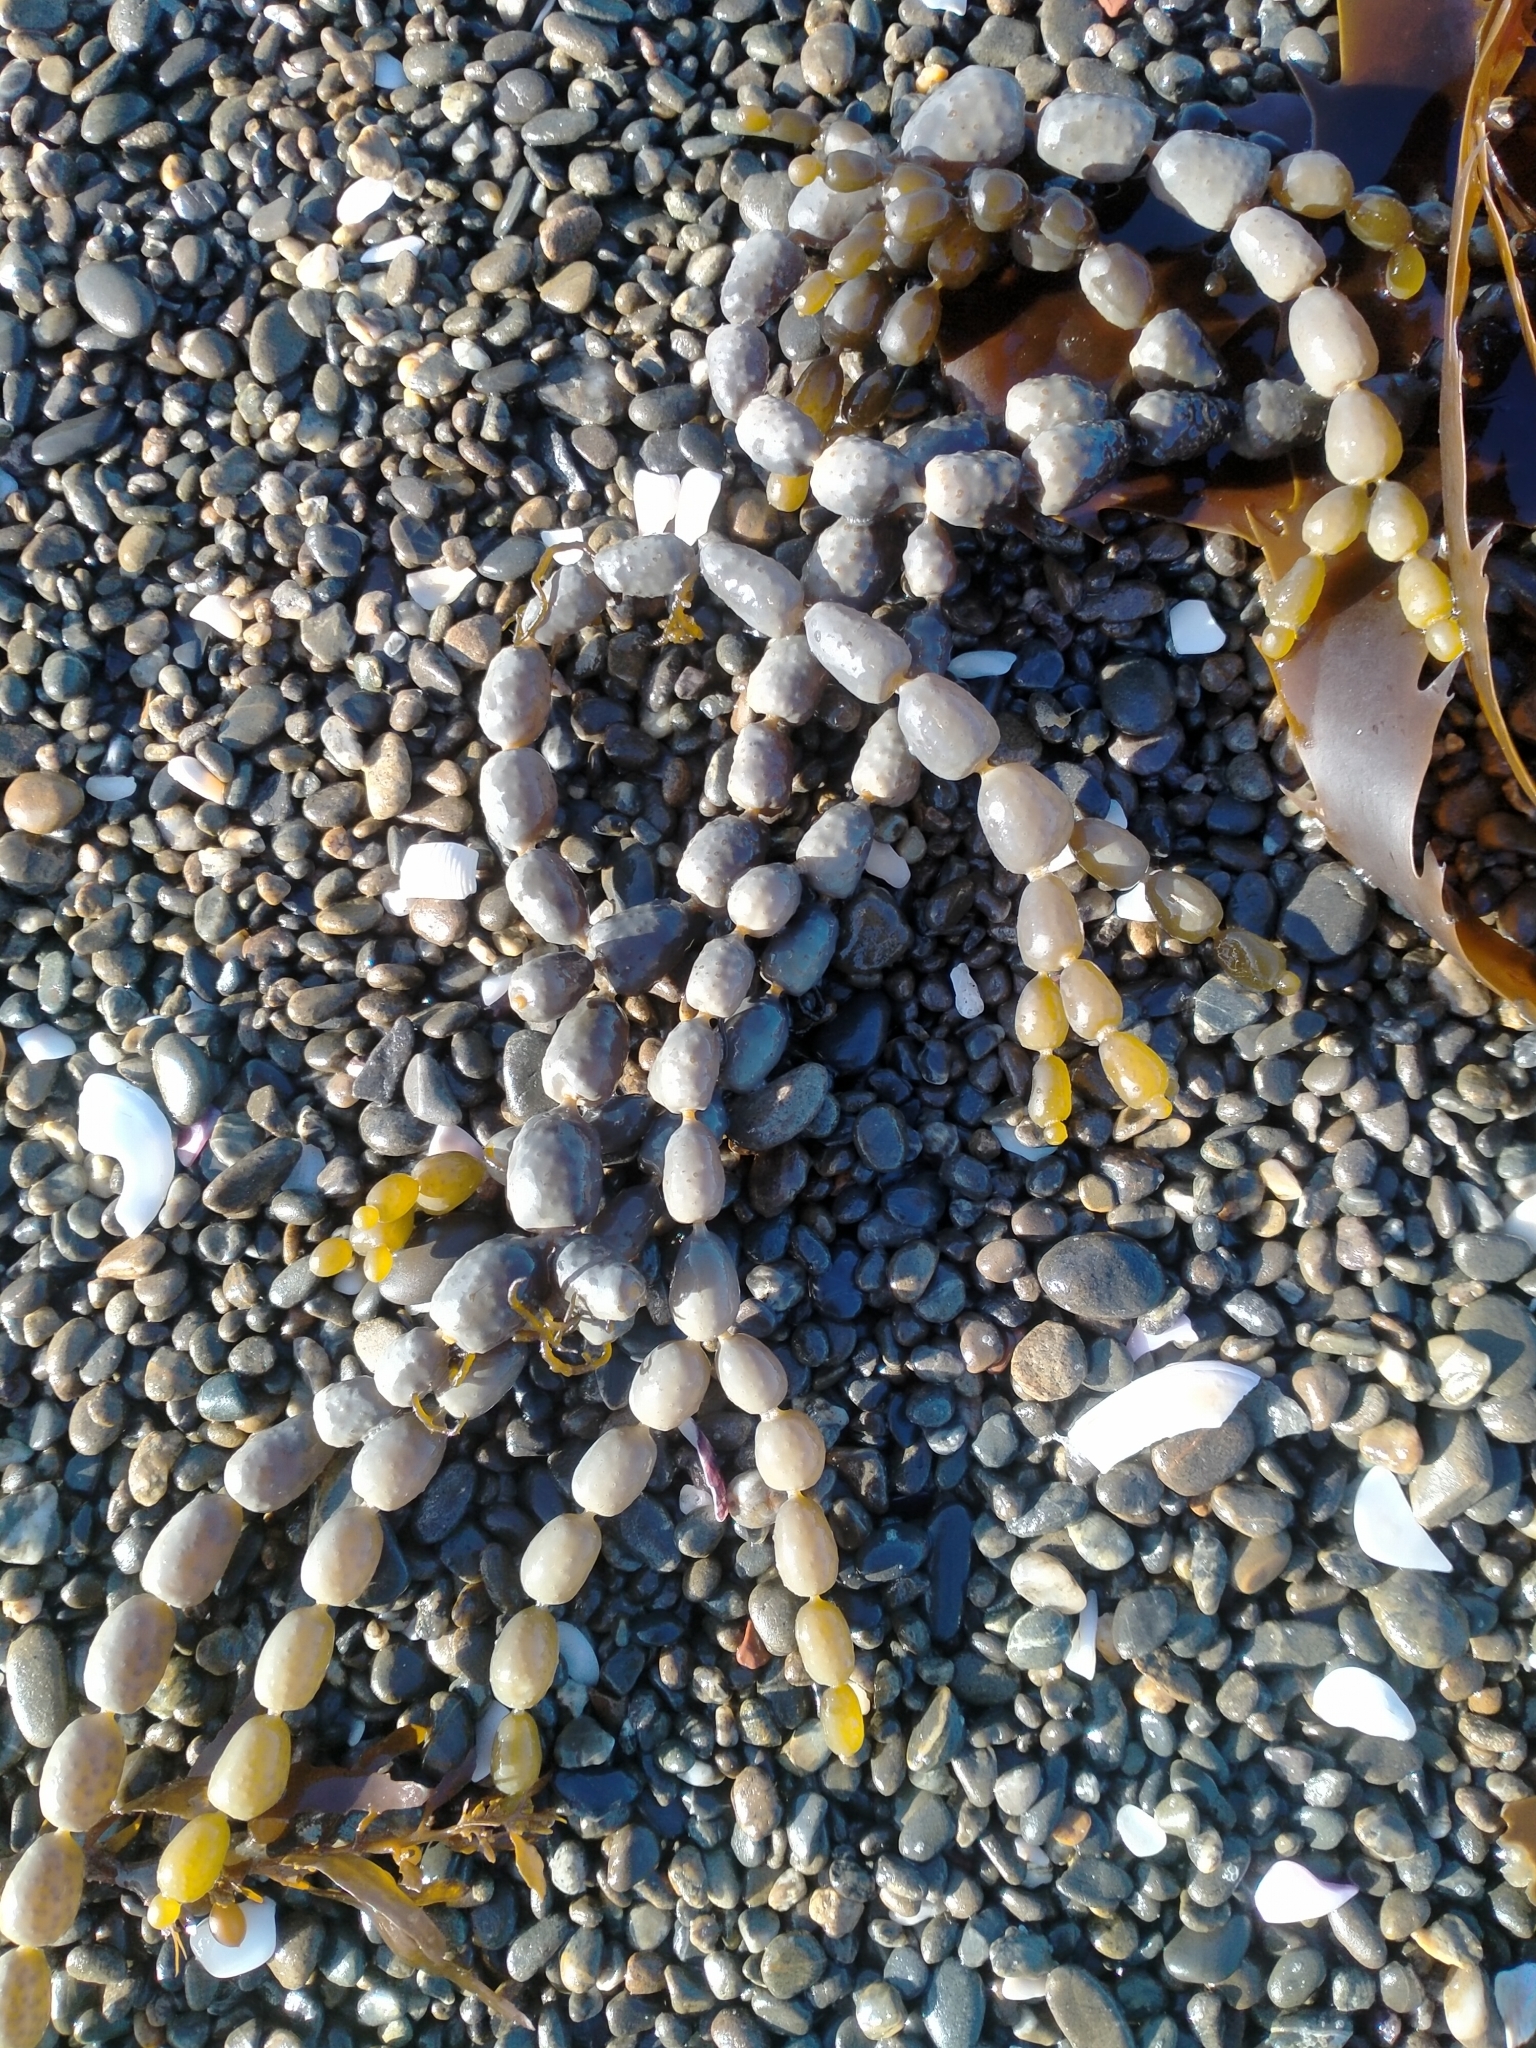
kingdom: Chromista
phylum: Ochrophyta
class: Phaeophyceae
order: Fucales
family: Hormosiraceae
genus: Hormosira
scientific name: Hormosira banksii
